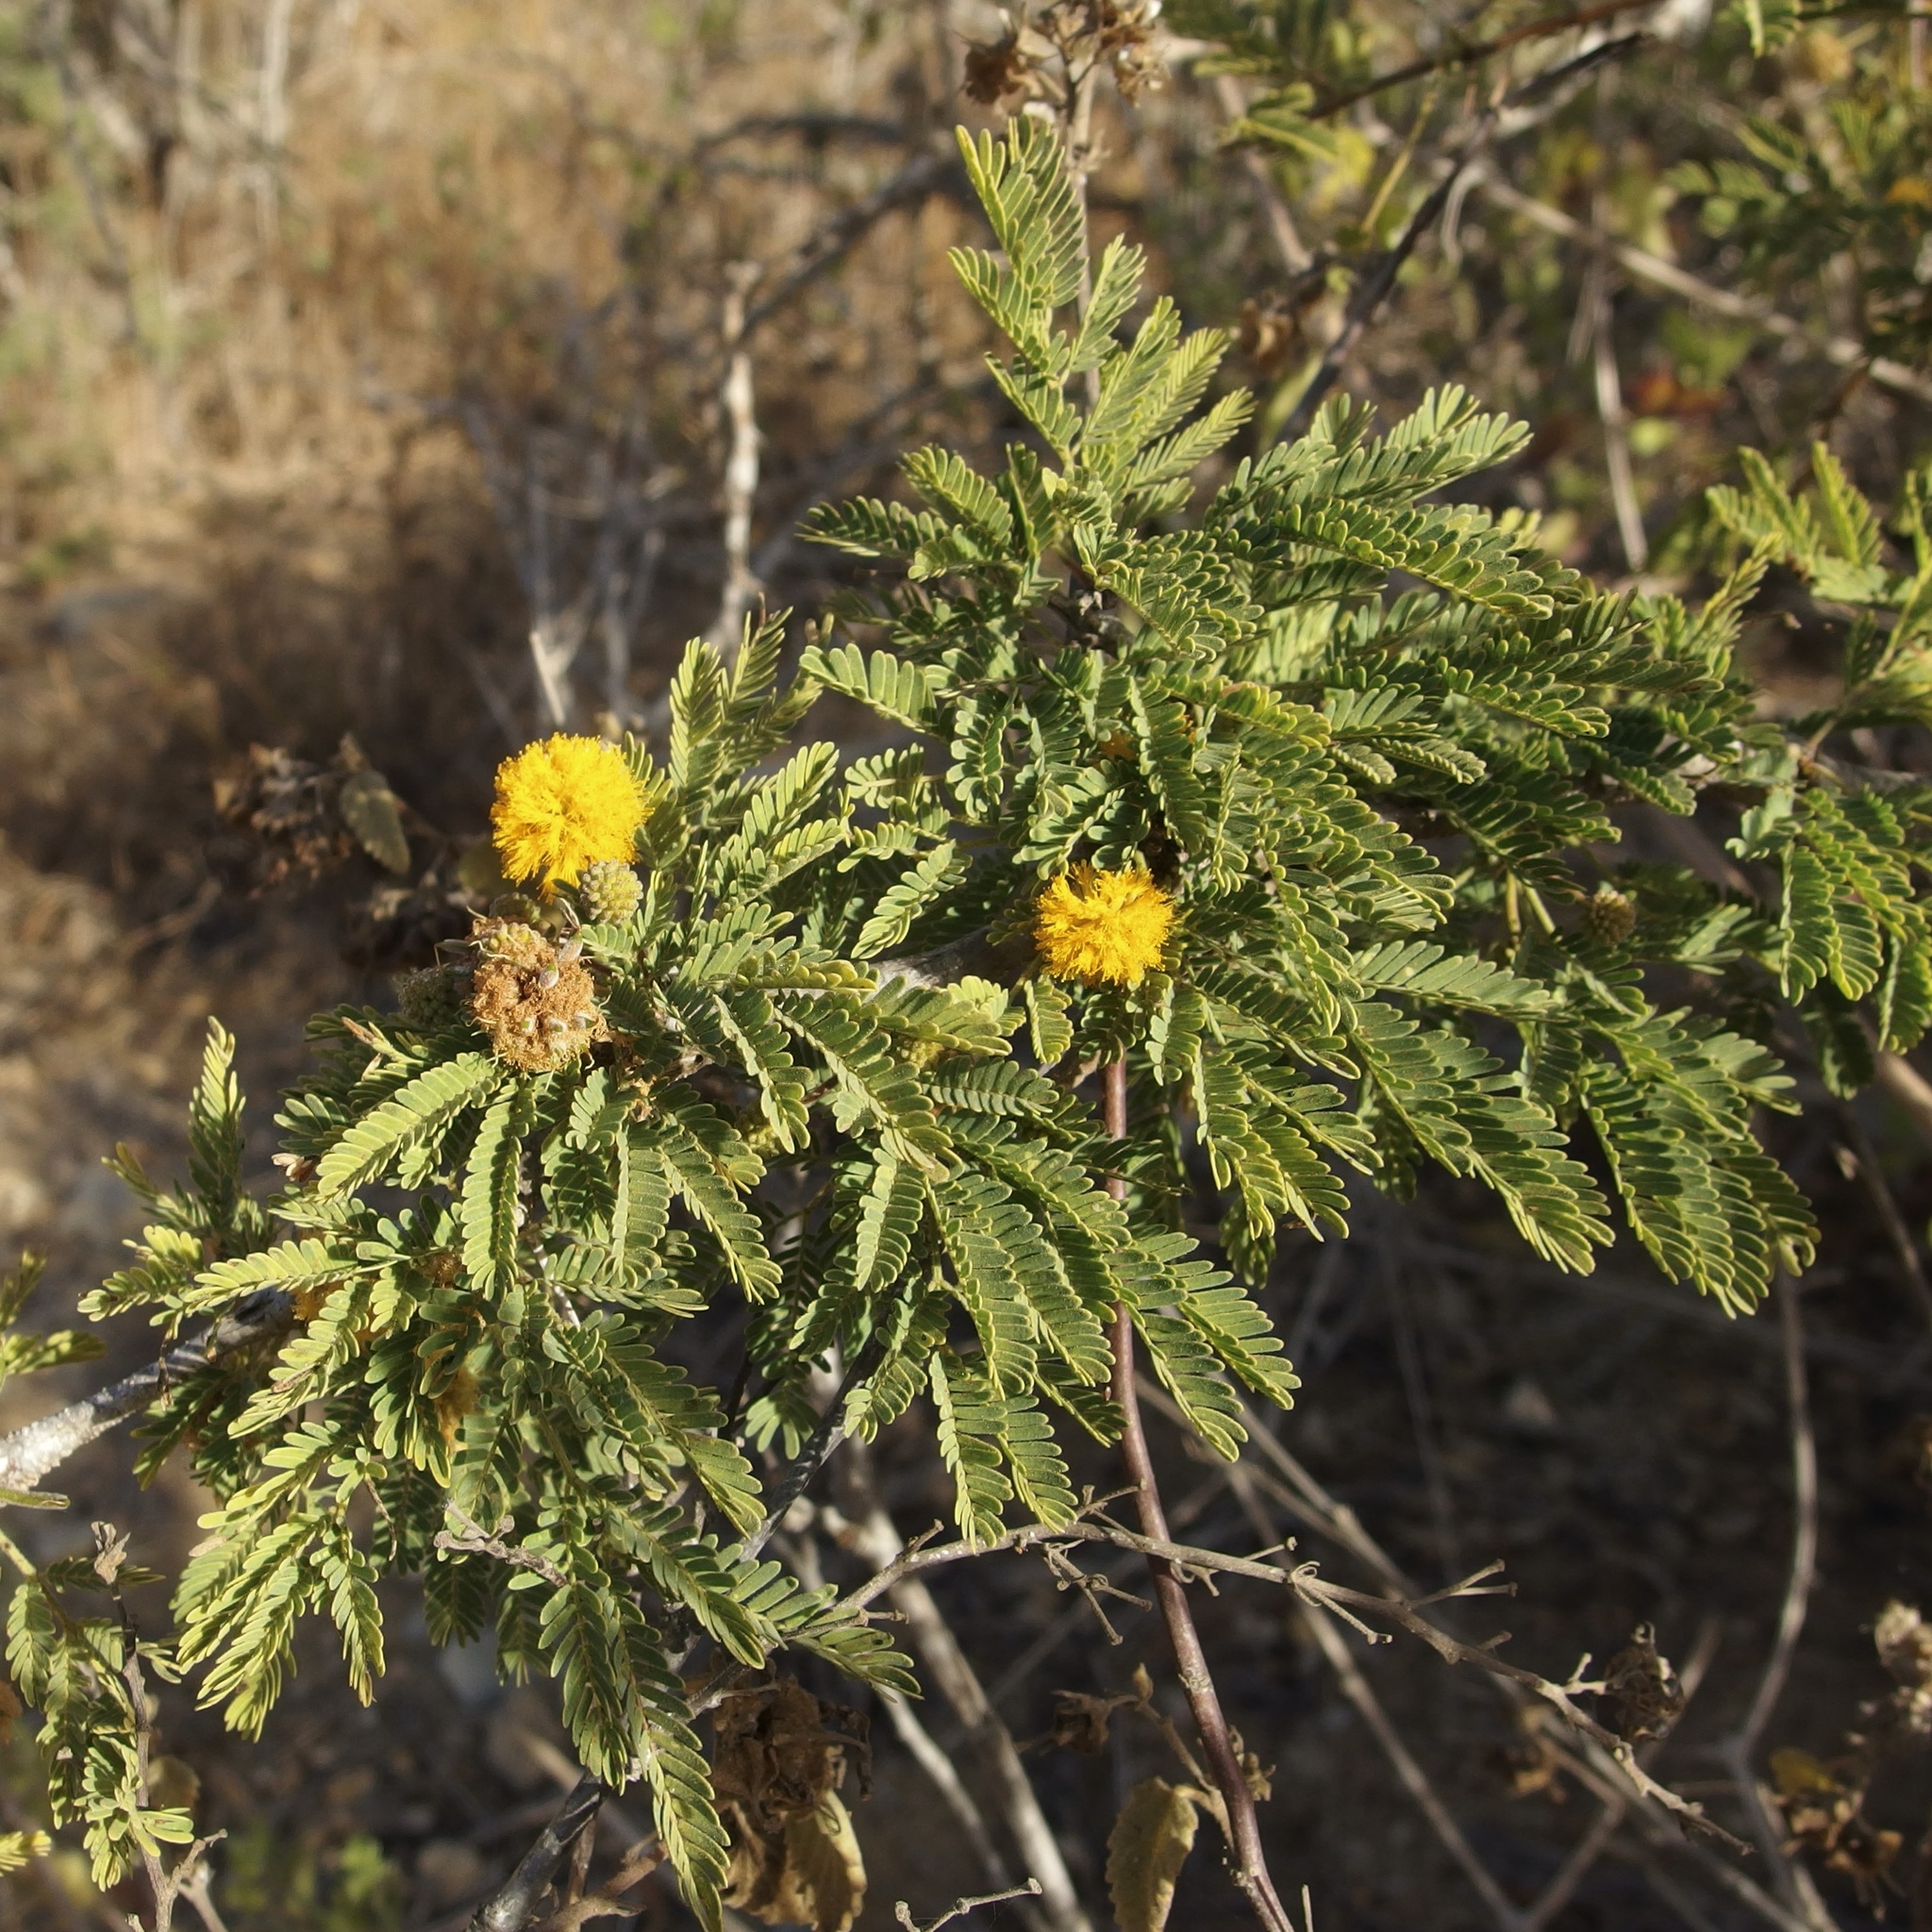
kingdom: Plantae
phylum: Tracheophyta
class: Magnoliopsida
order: Fabales
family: Fabaceae
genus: Vachellia
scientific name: Vachellia farnesiana
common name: Sweet acacia
